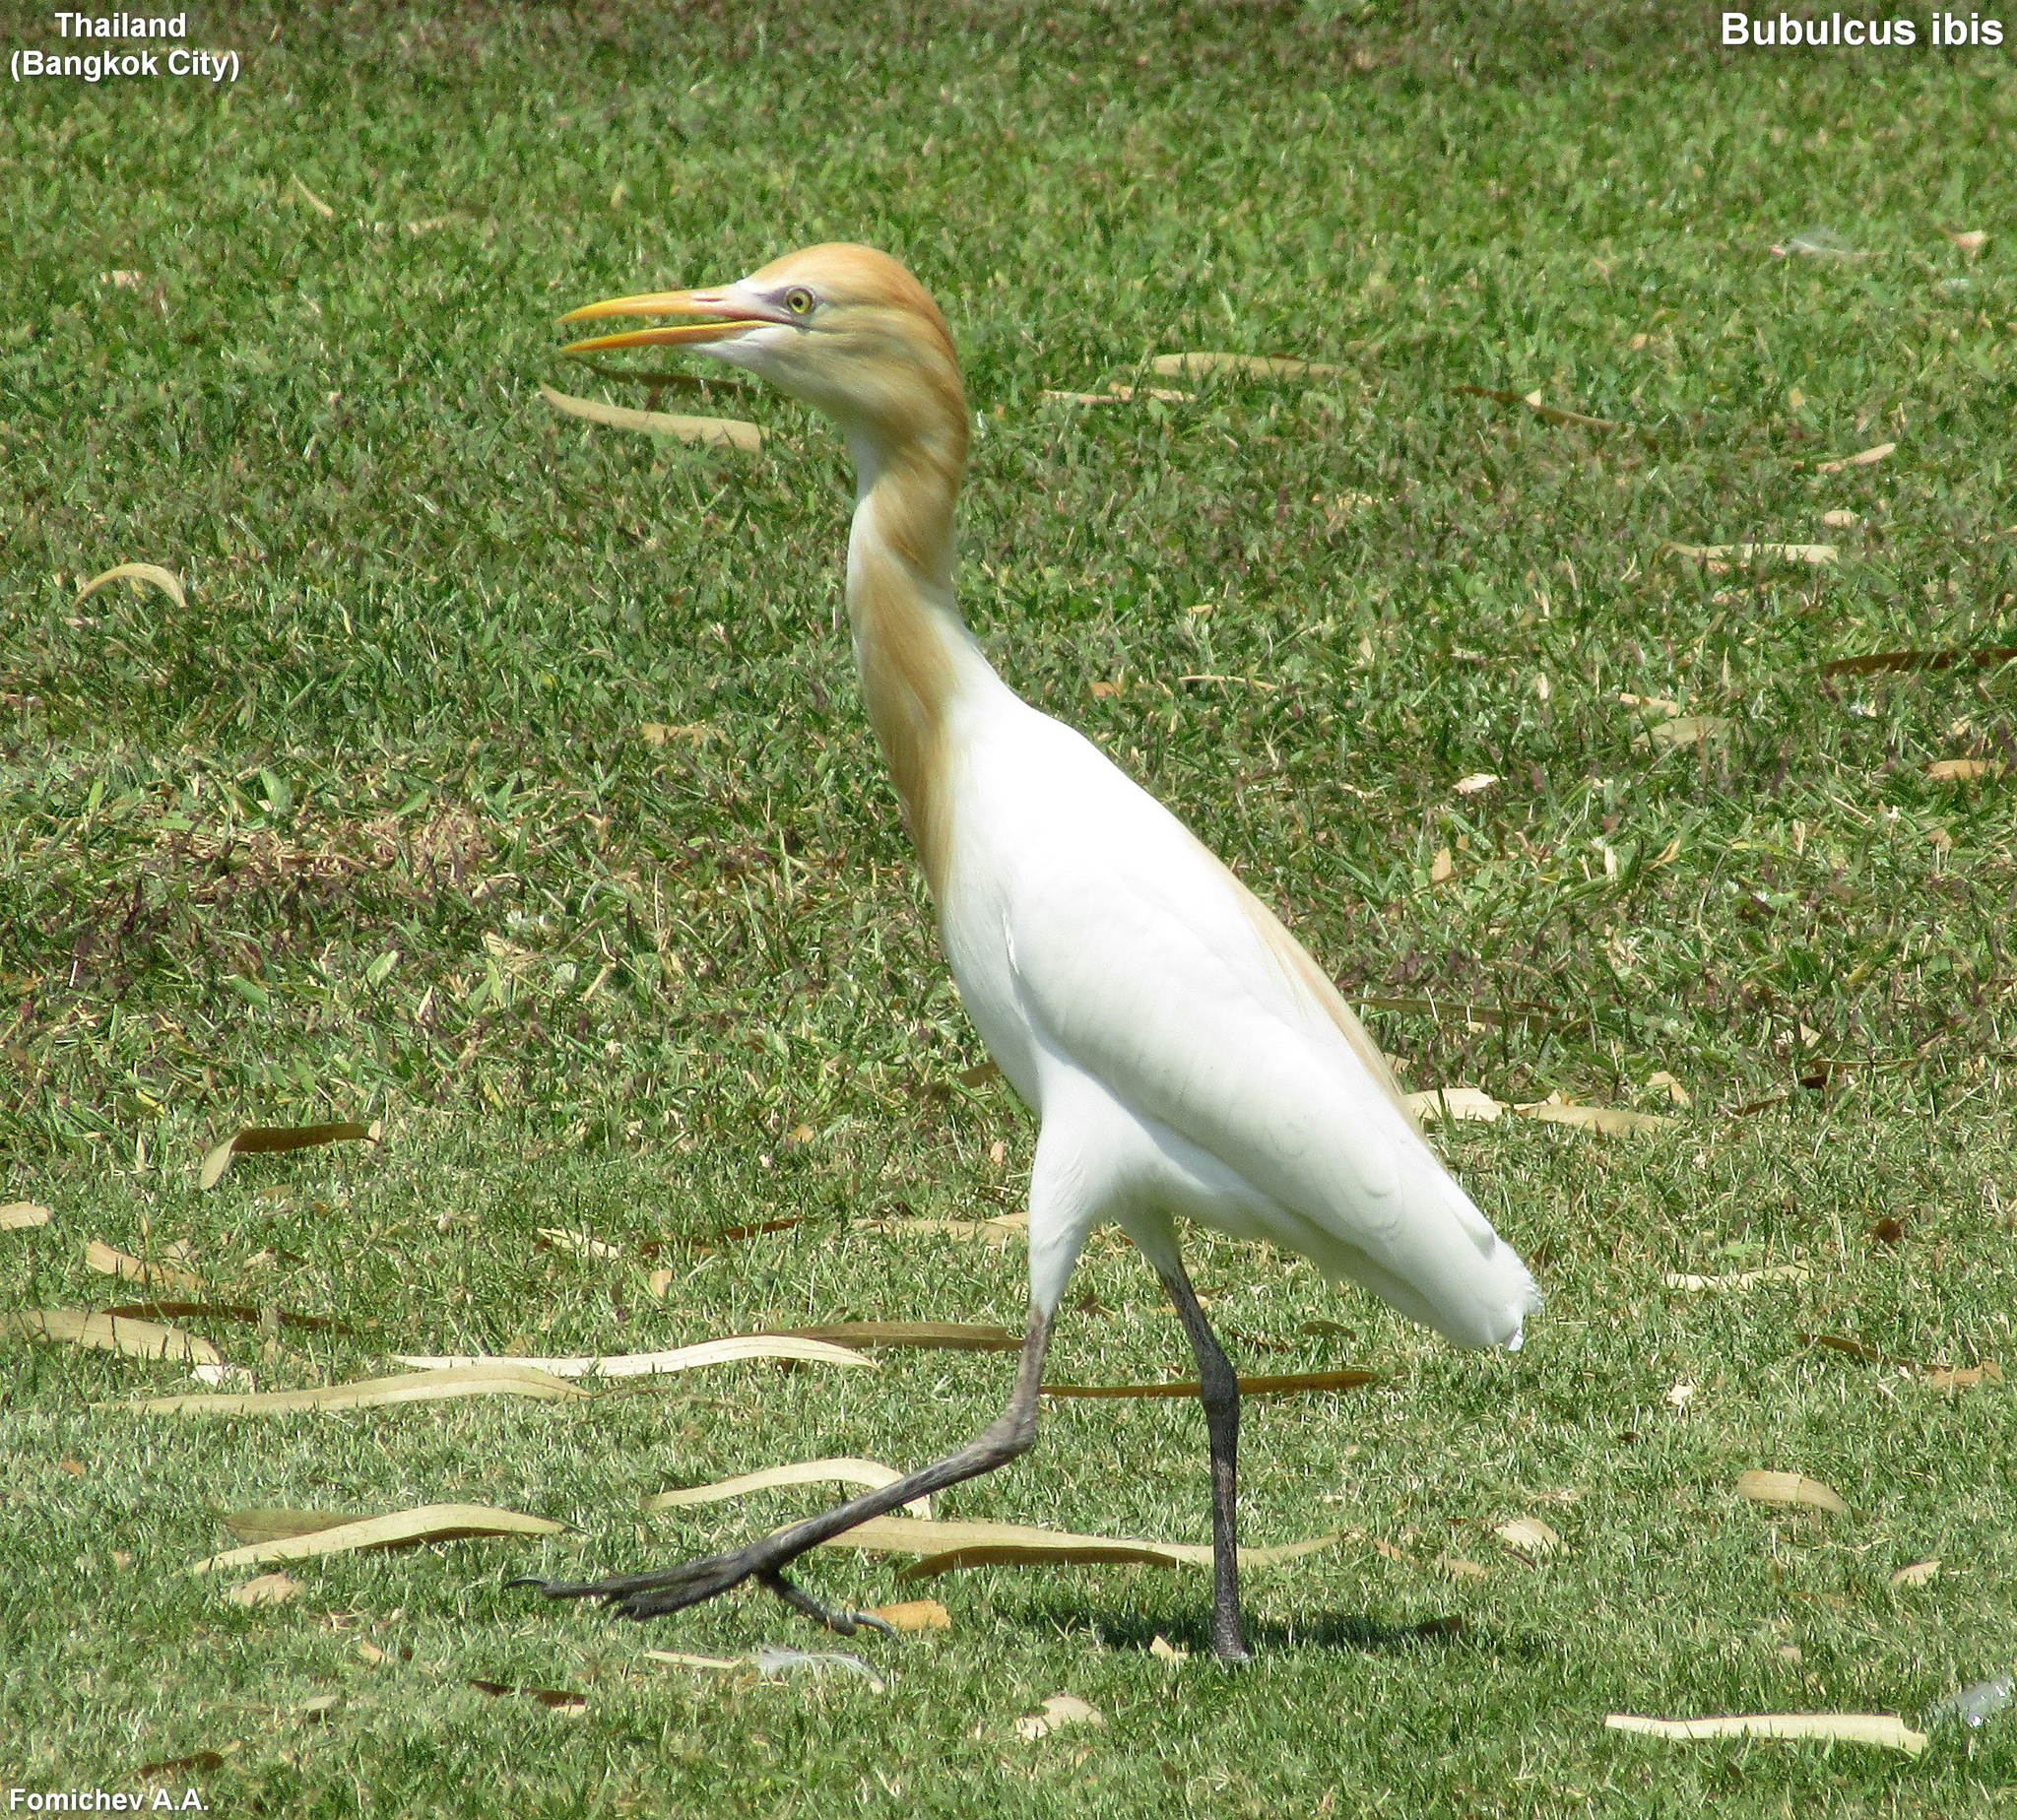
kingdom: Animalia
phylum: Chordata
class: Aves
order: Pelecaniformes
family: Ardeidae
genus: Bubulcus
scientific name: Bubulcus coromandus
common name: Eastern cattle egret
